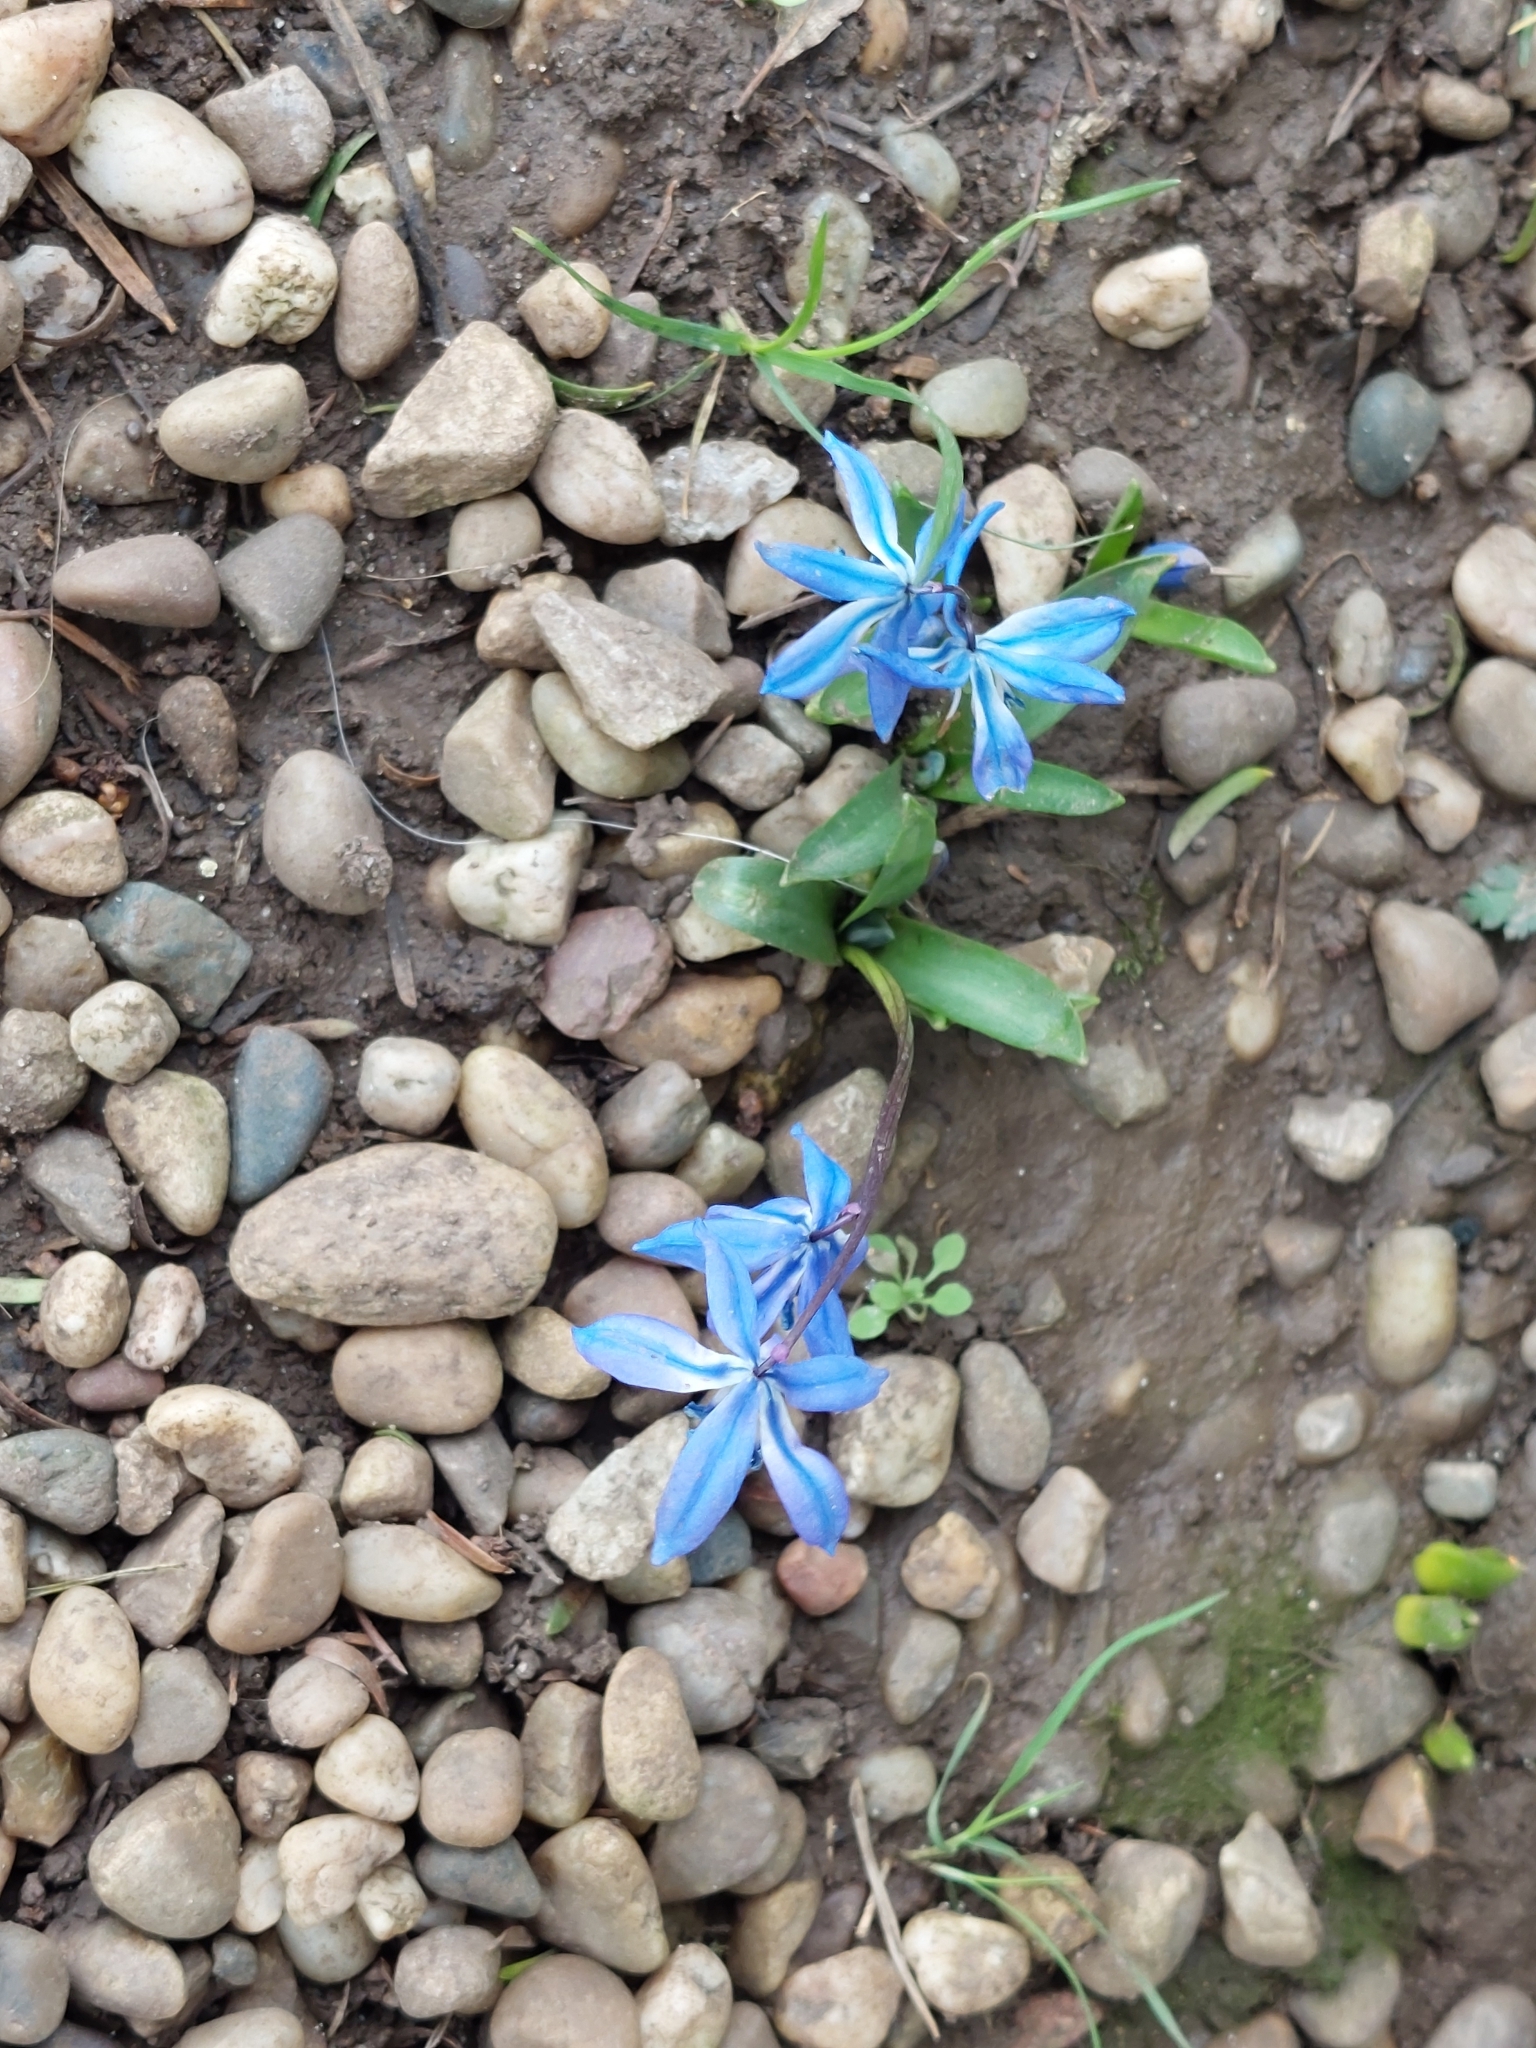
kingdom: Plantae
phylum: Tracheophyta
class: Liliopsida
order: Asparagales
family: Asparagaceae
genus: Scilla
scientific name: Scilla siberica
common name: Siberian squill
